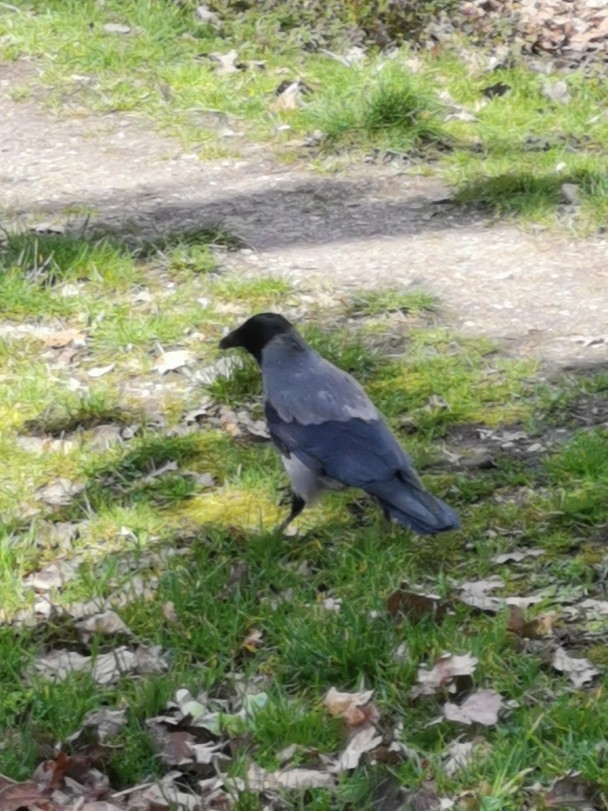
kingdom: Animalia
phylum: Chordata
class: Aves
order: Passeriformes
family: Corvidae
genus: Corvus
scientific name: Corvus cornix
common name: Hooded crow
